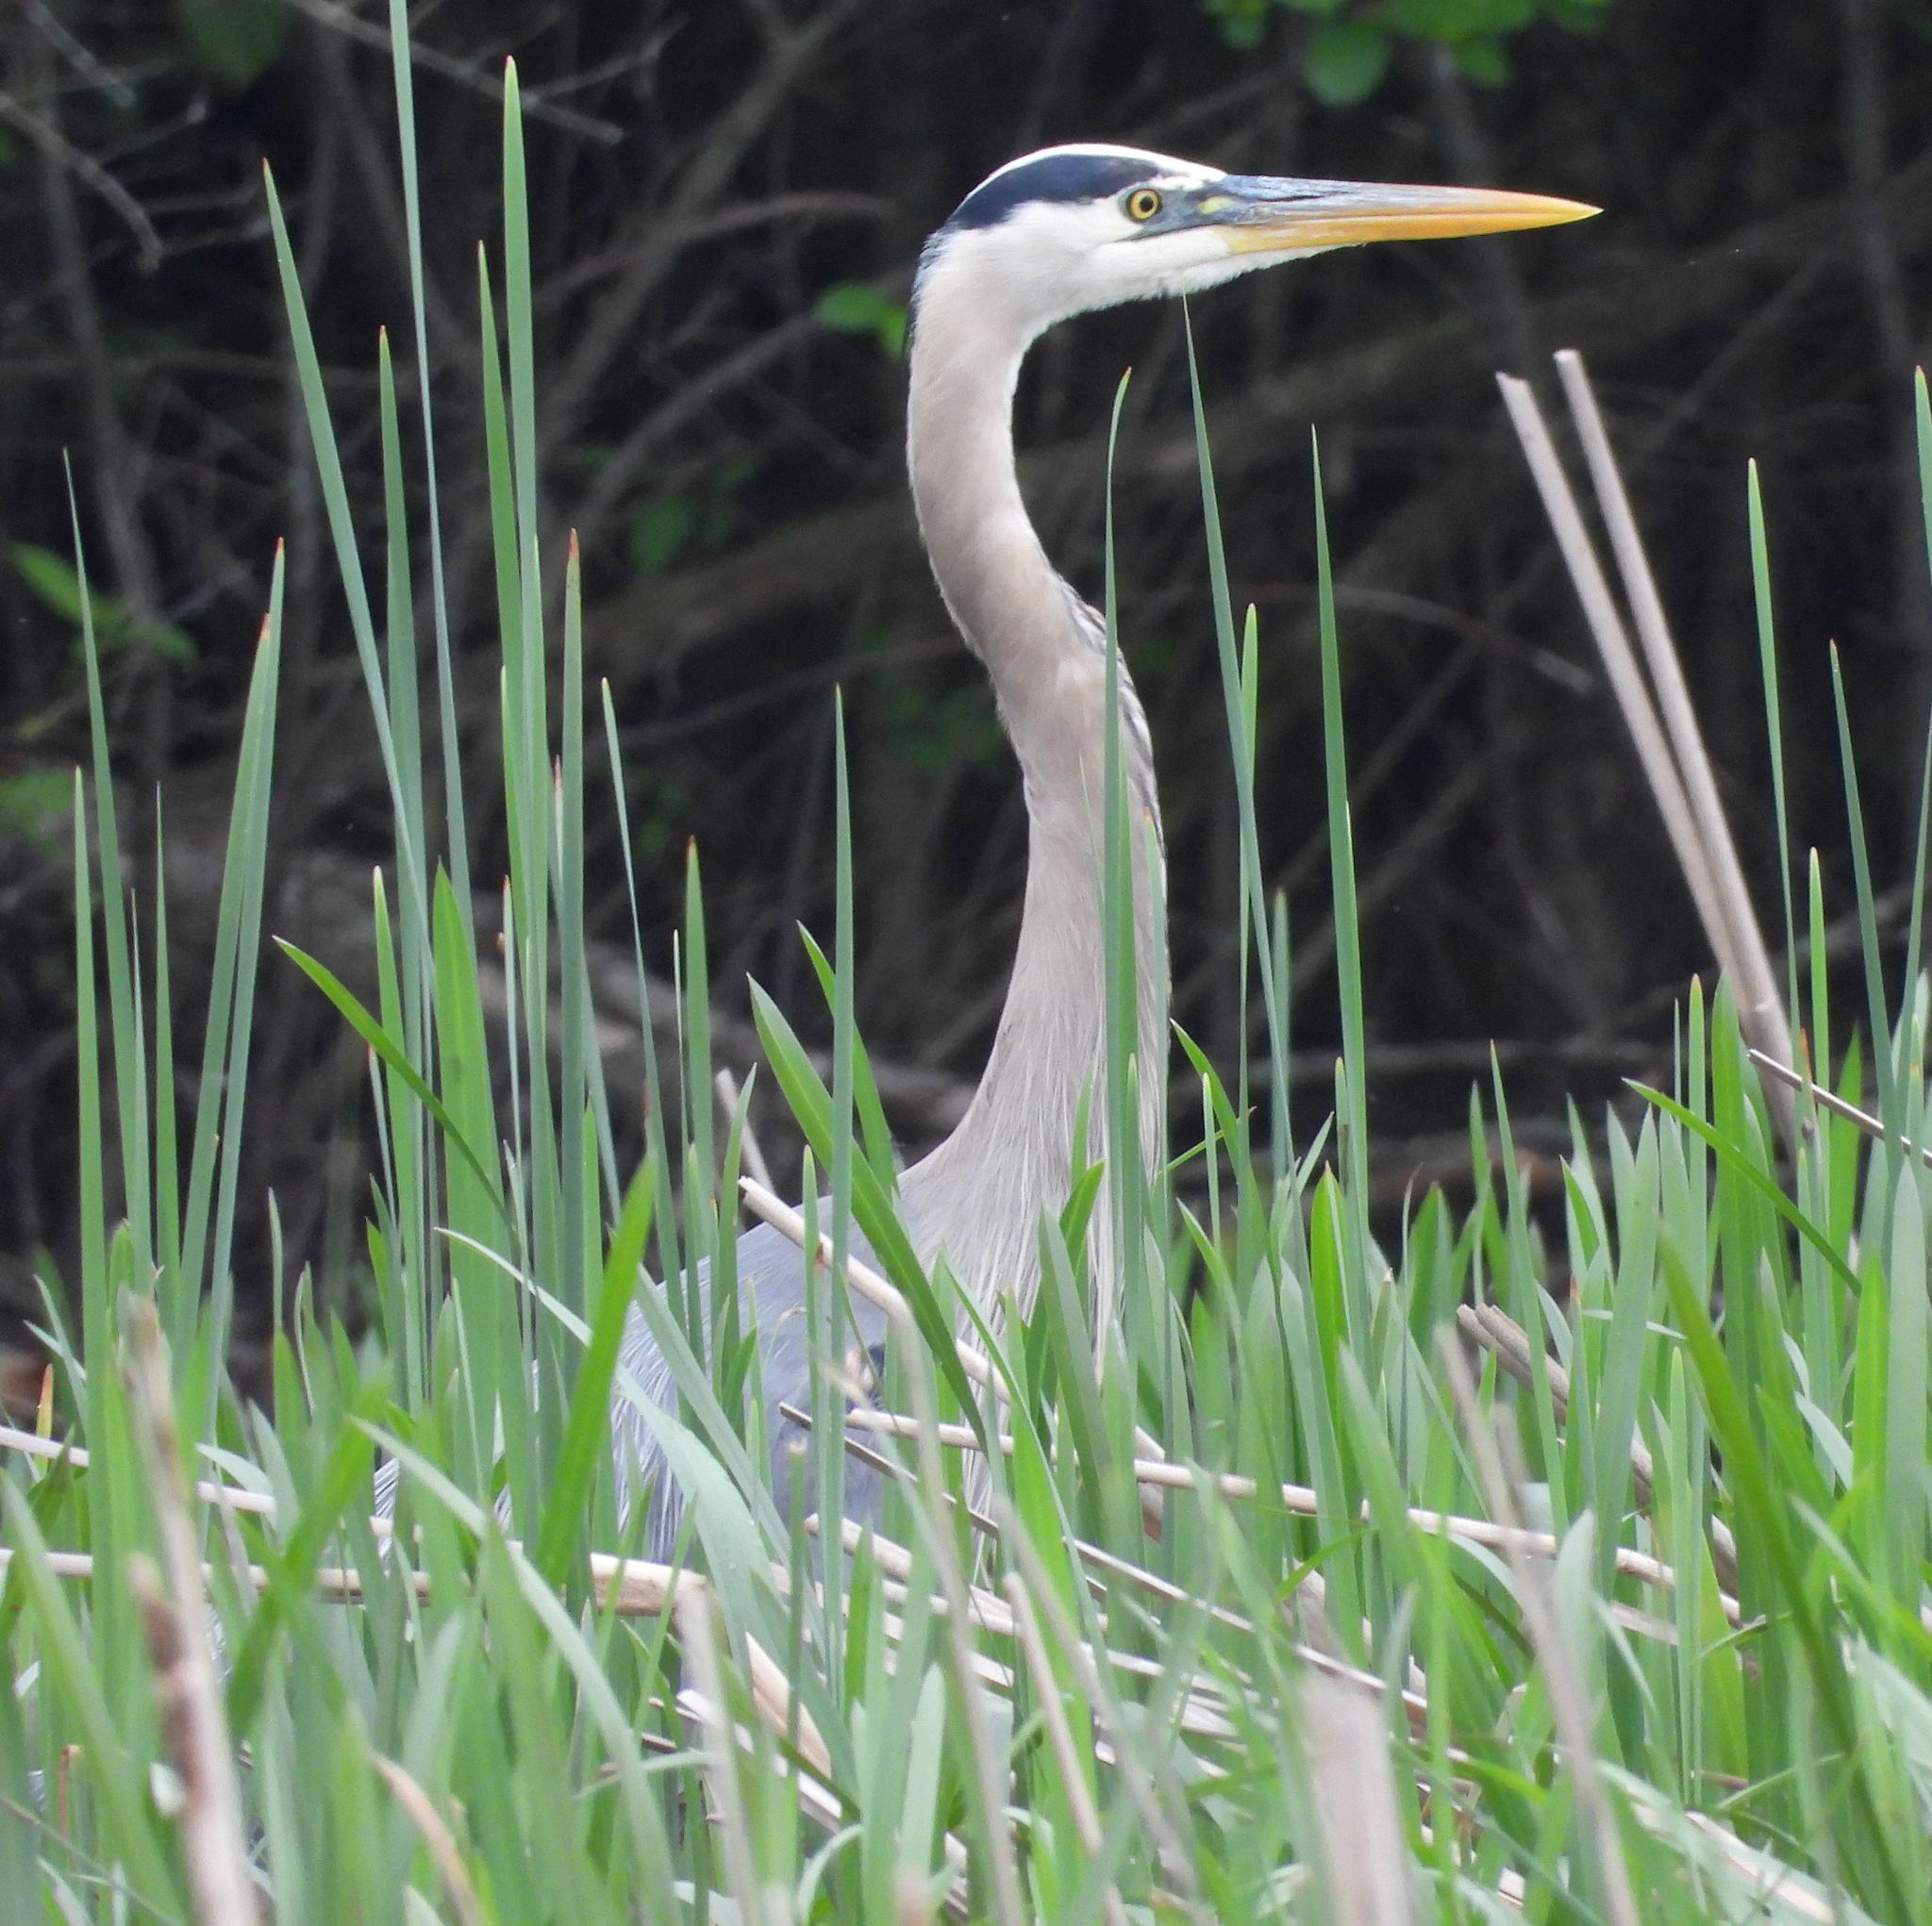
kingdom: Animalia
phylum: Chordata
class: Aves
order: Pelecaniformes
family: Ardeidae
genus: Ardea
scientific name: Ardea herodias
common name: Great blue heron
